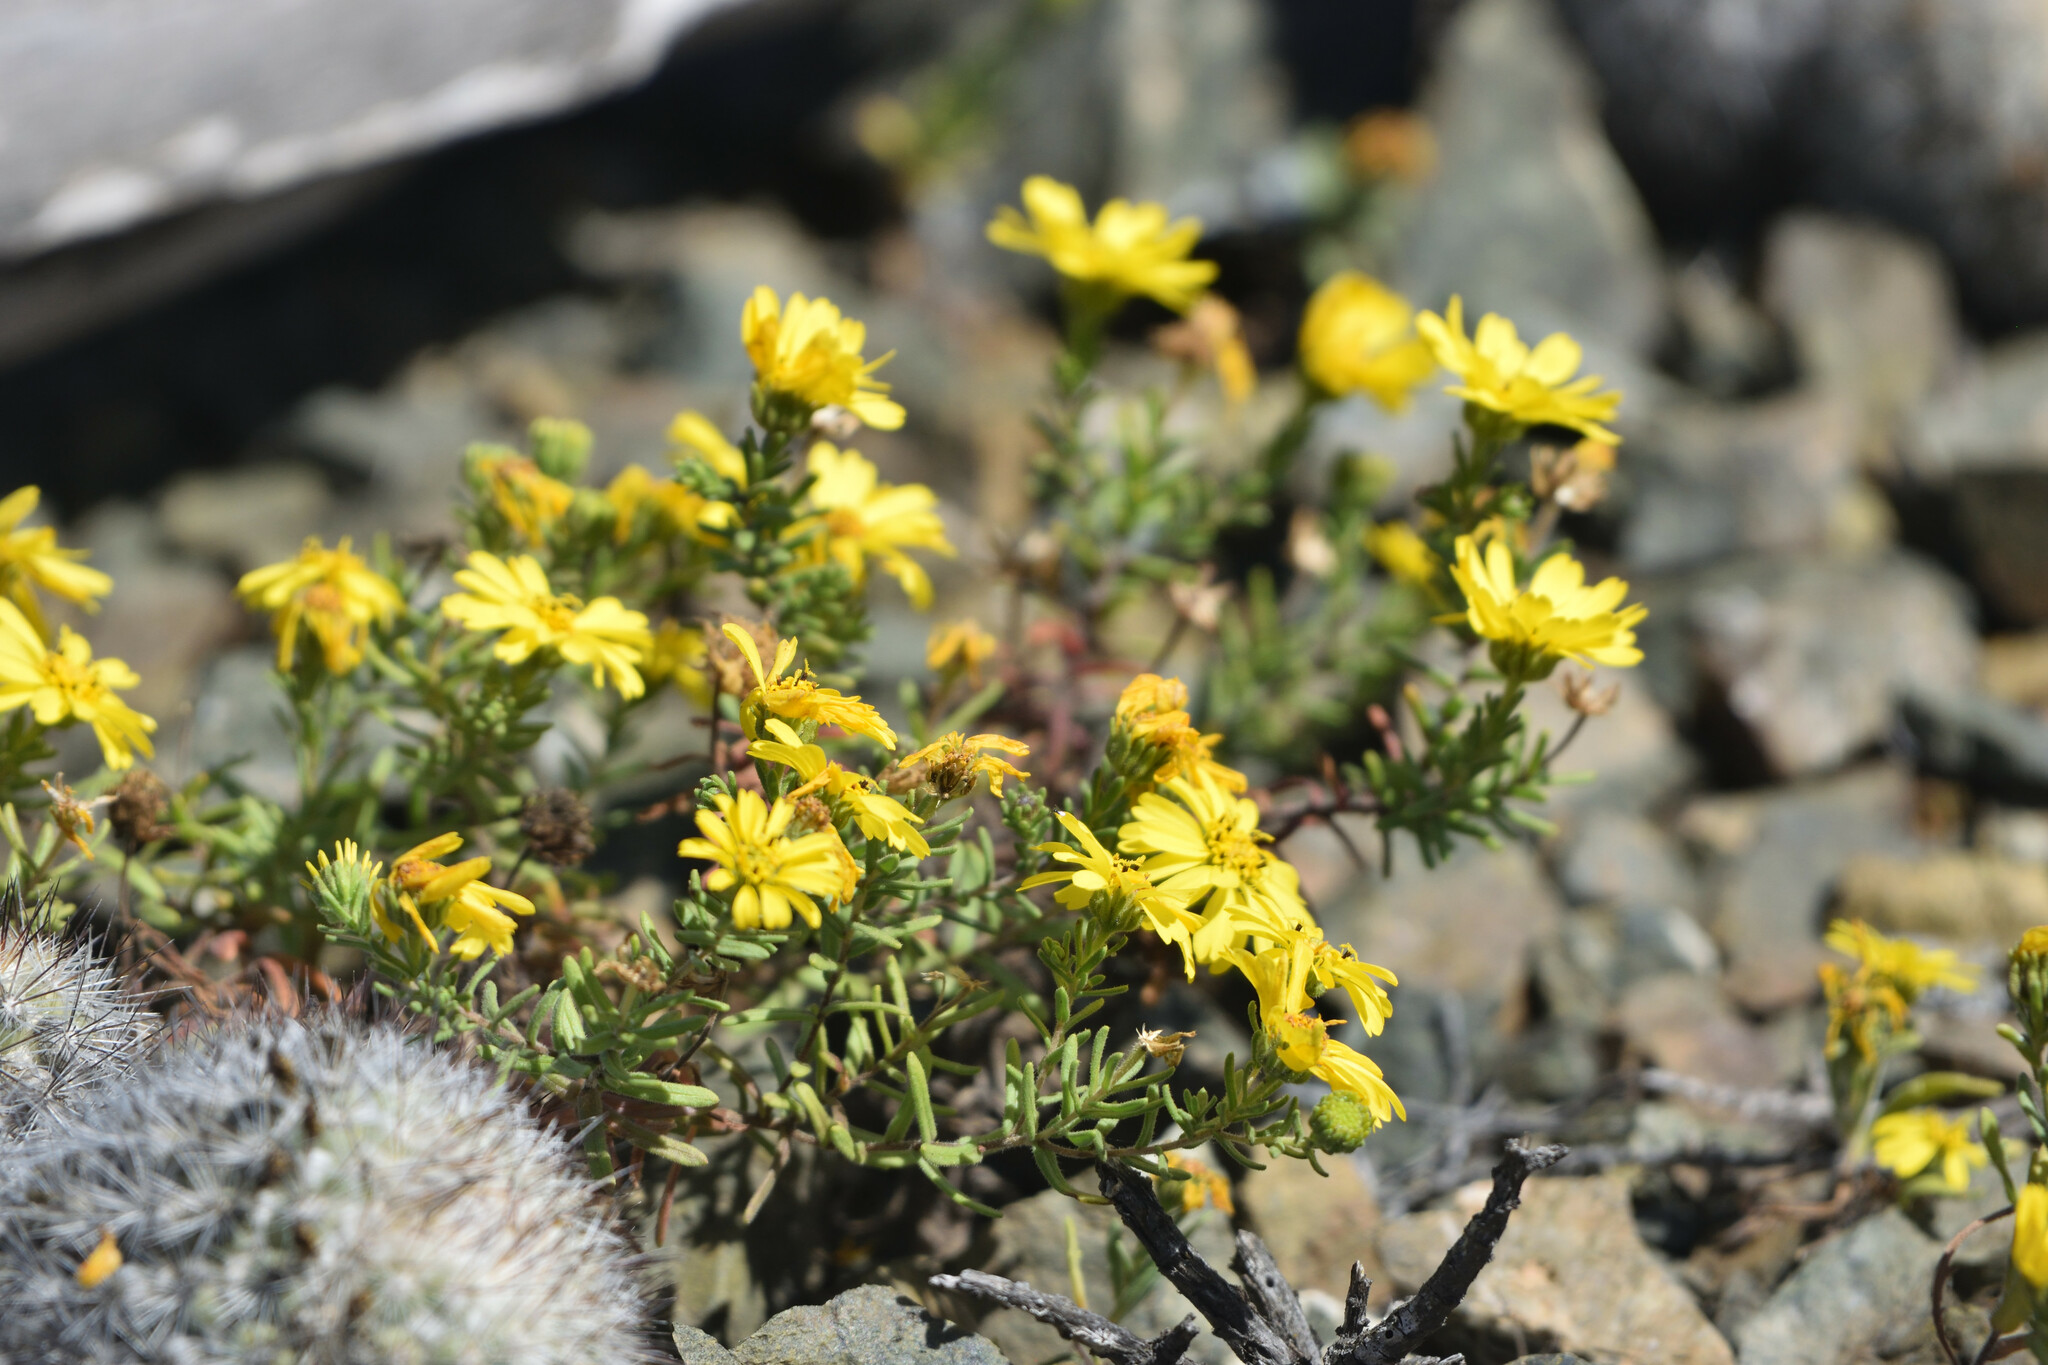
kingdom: Plantae
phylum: Tracheophyta
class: Magnoliopsida
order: Asterales
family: Asteraceae
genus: Deinandra
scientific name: Deinandra streetsii
